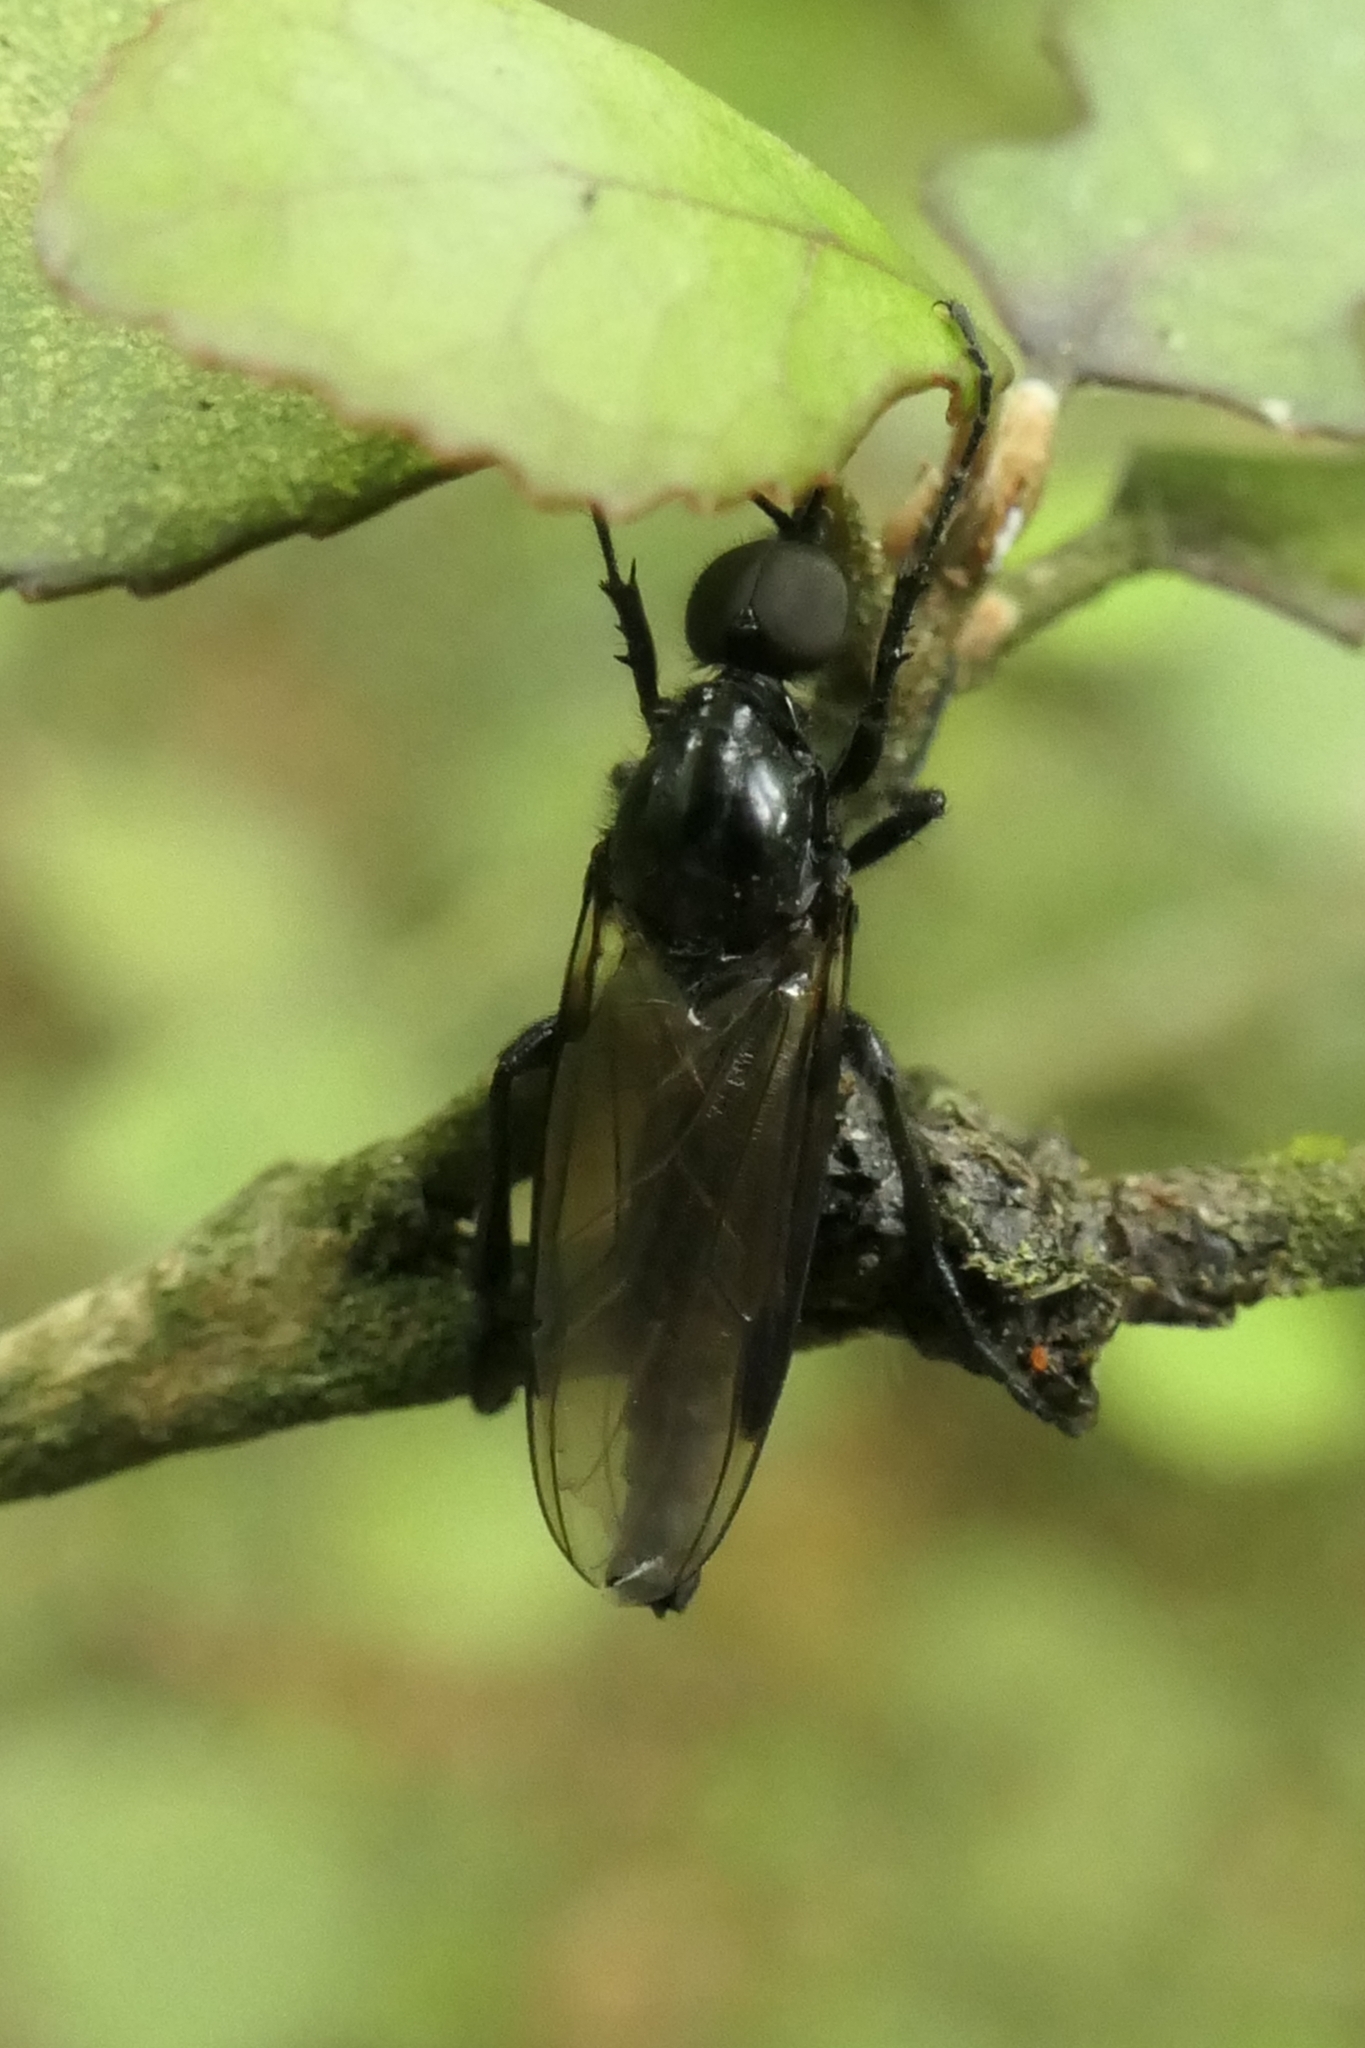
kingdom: Animalia
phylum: Arthropoda
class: Insecta
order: Diptera
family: Bibionidae
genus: Dilophus
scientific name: Dilophus nigrostigma
